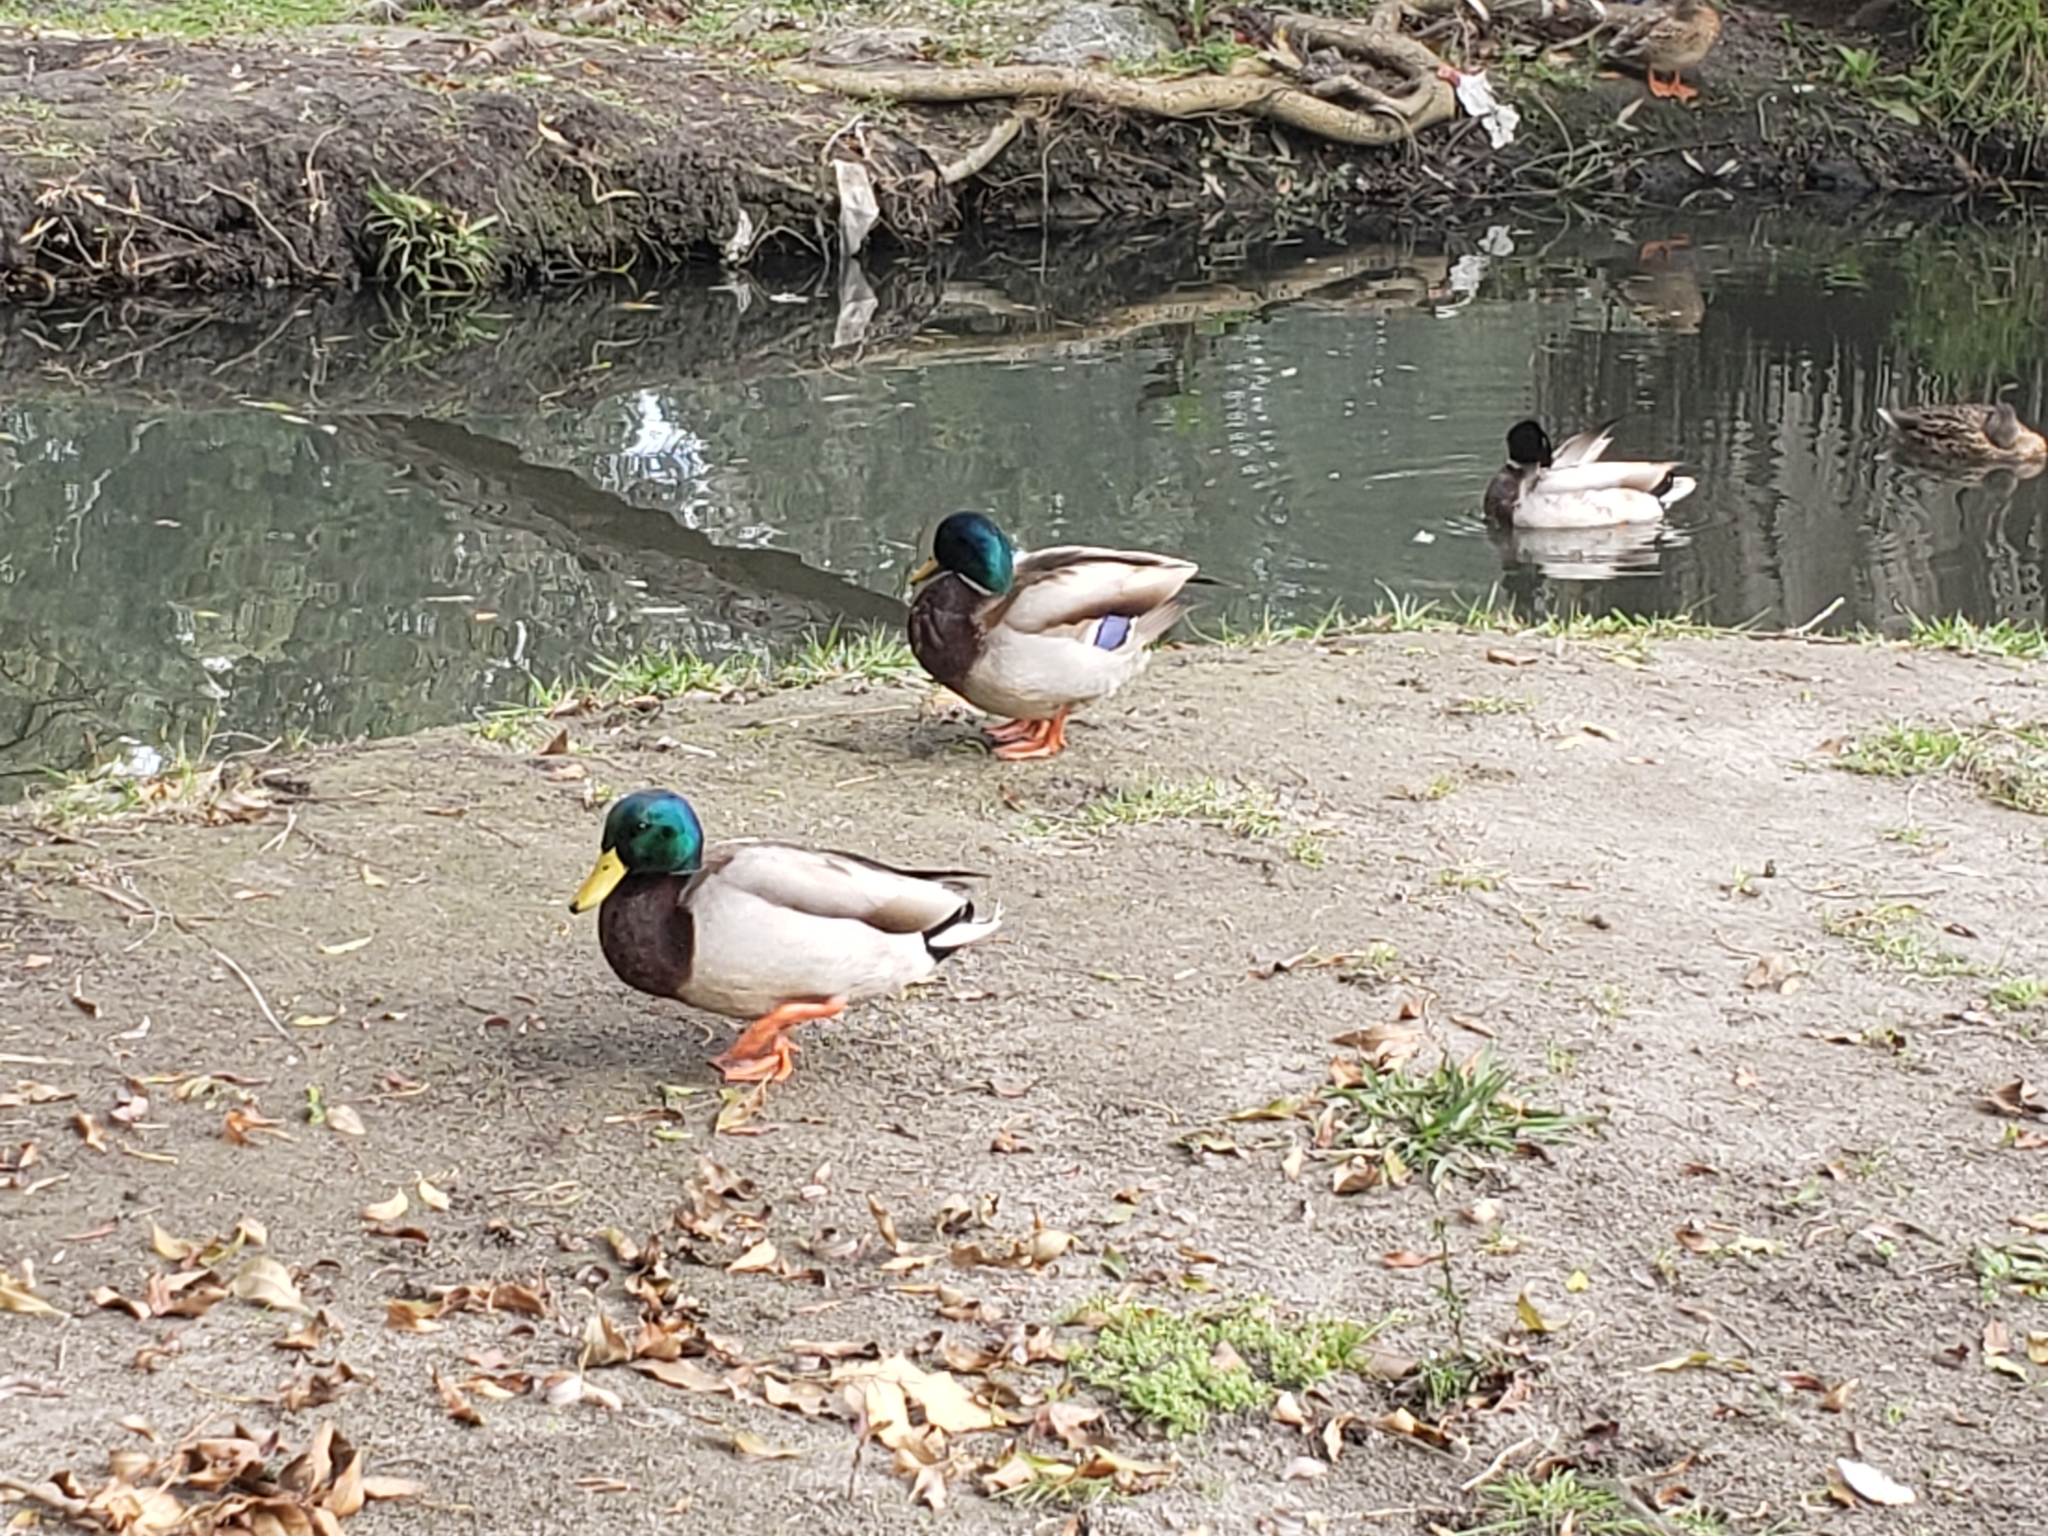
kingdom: Animalia
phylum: Chordata
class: Aves
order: Anseriformes
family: Anatidae
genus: Anas
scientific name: Anas platyrhynchos
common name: Mallard
